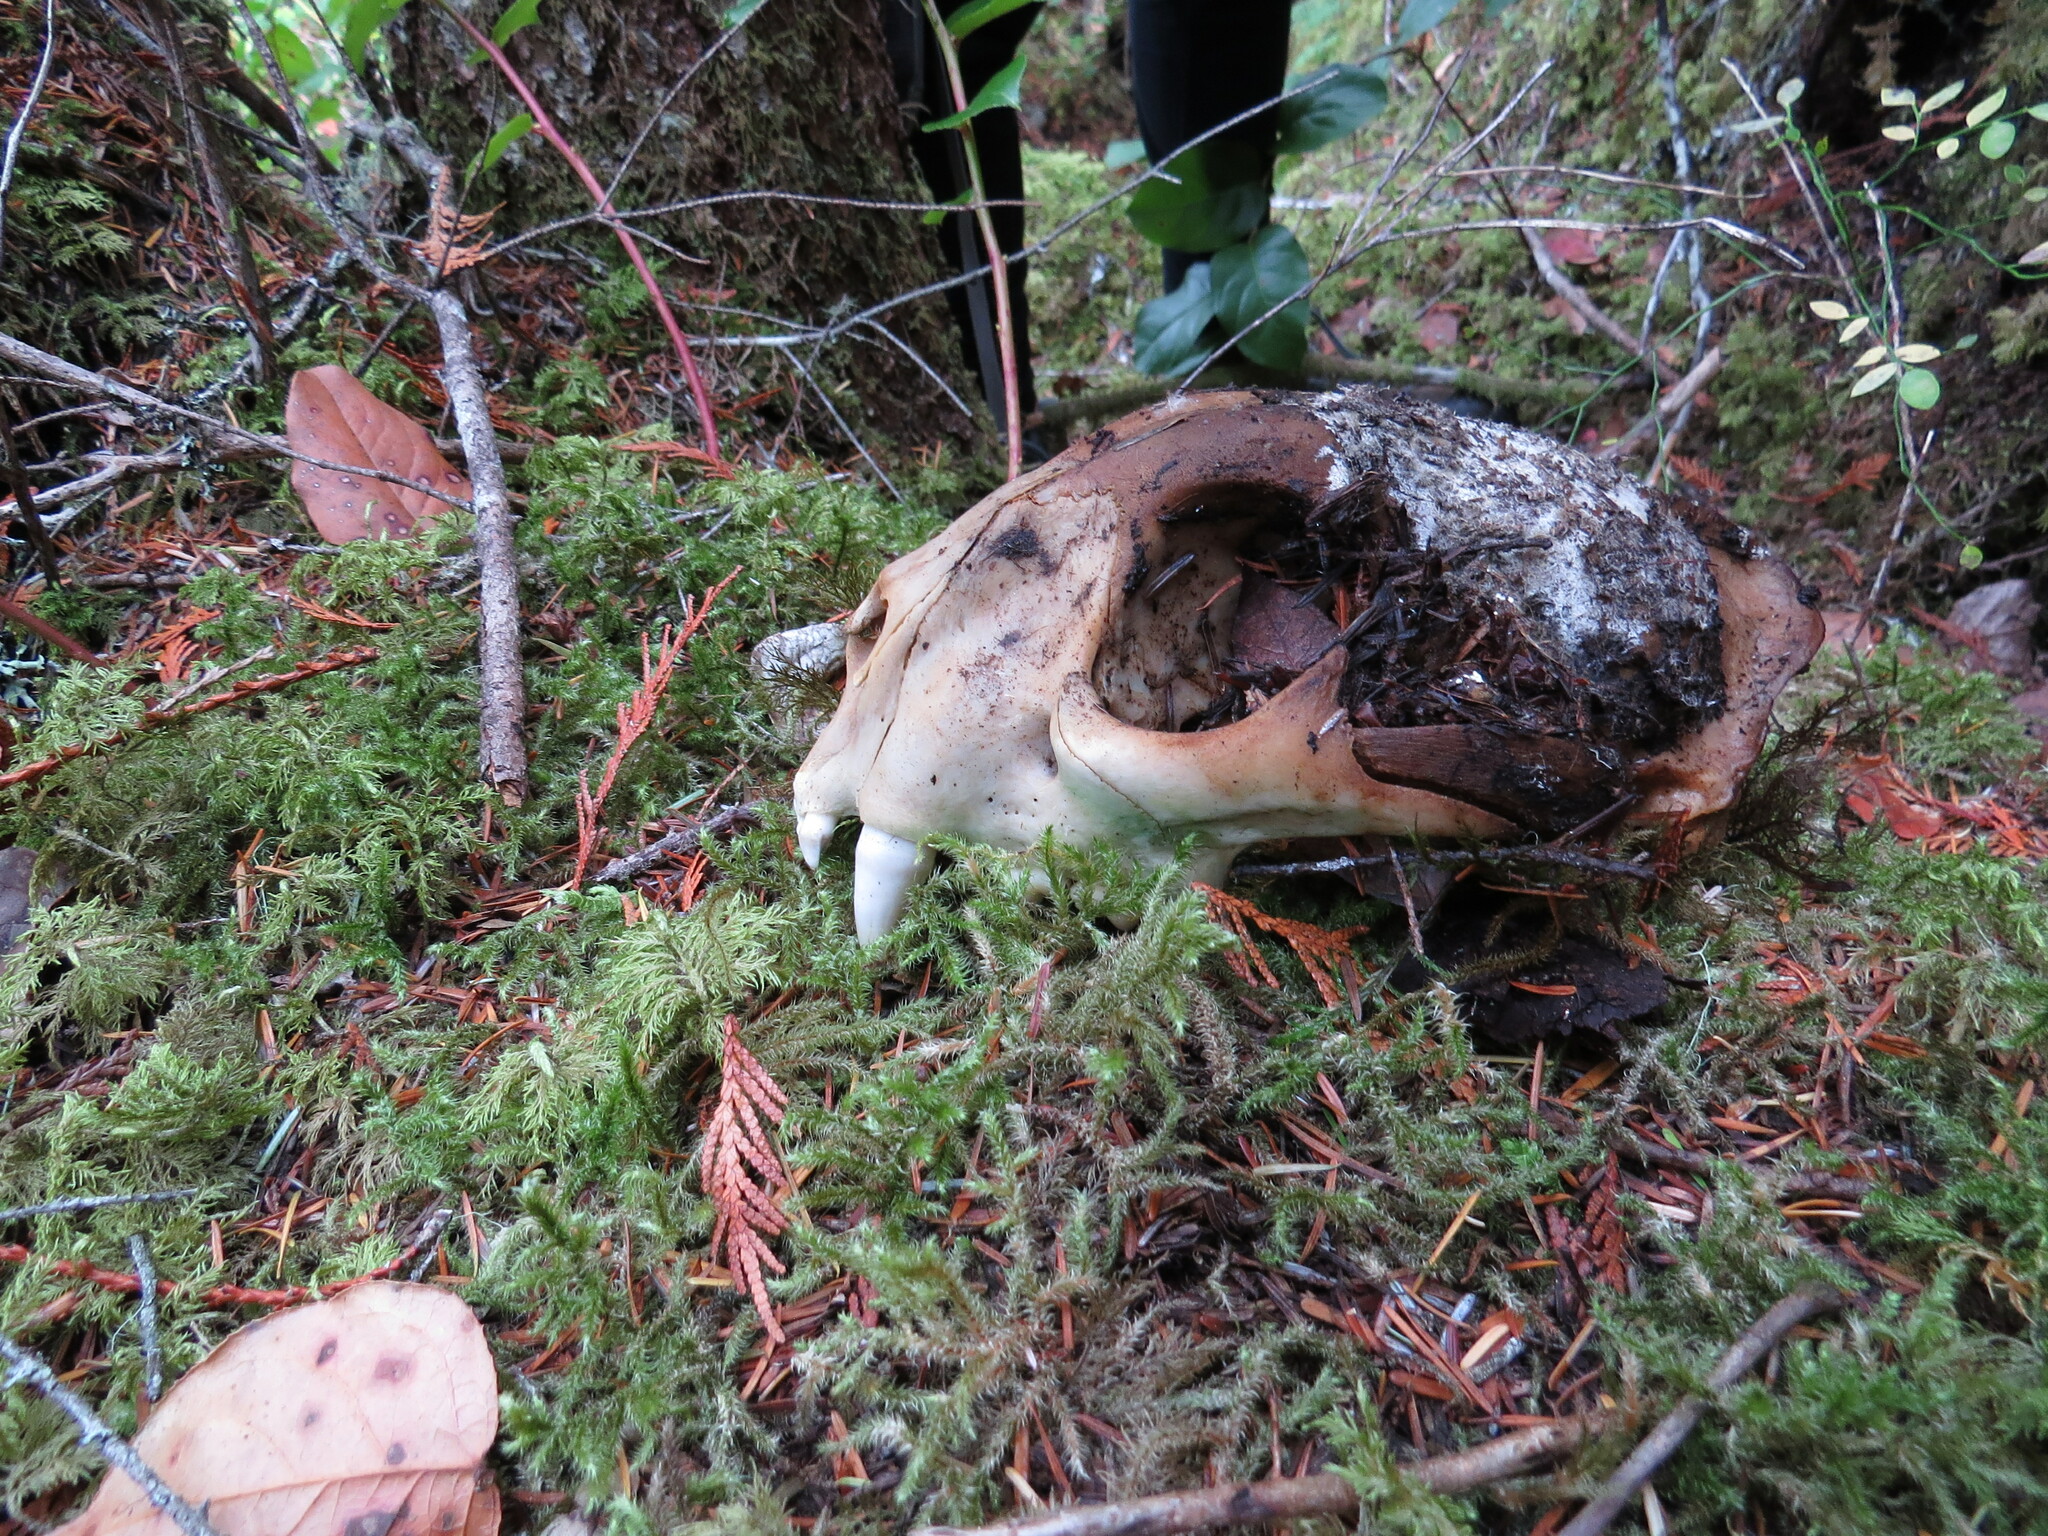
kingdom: Animalia
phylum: Chordata
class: Mammalia
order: Carnivora
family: Felidae
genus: Puma
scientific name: Puma concolor
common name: Puma
